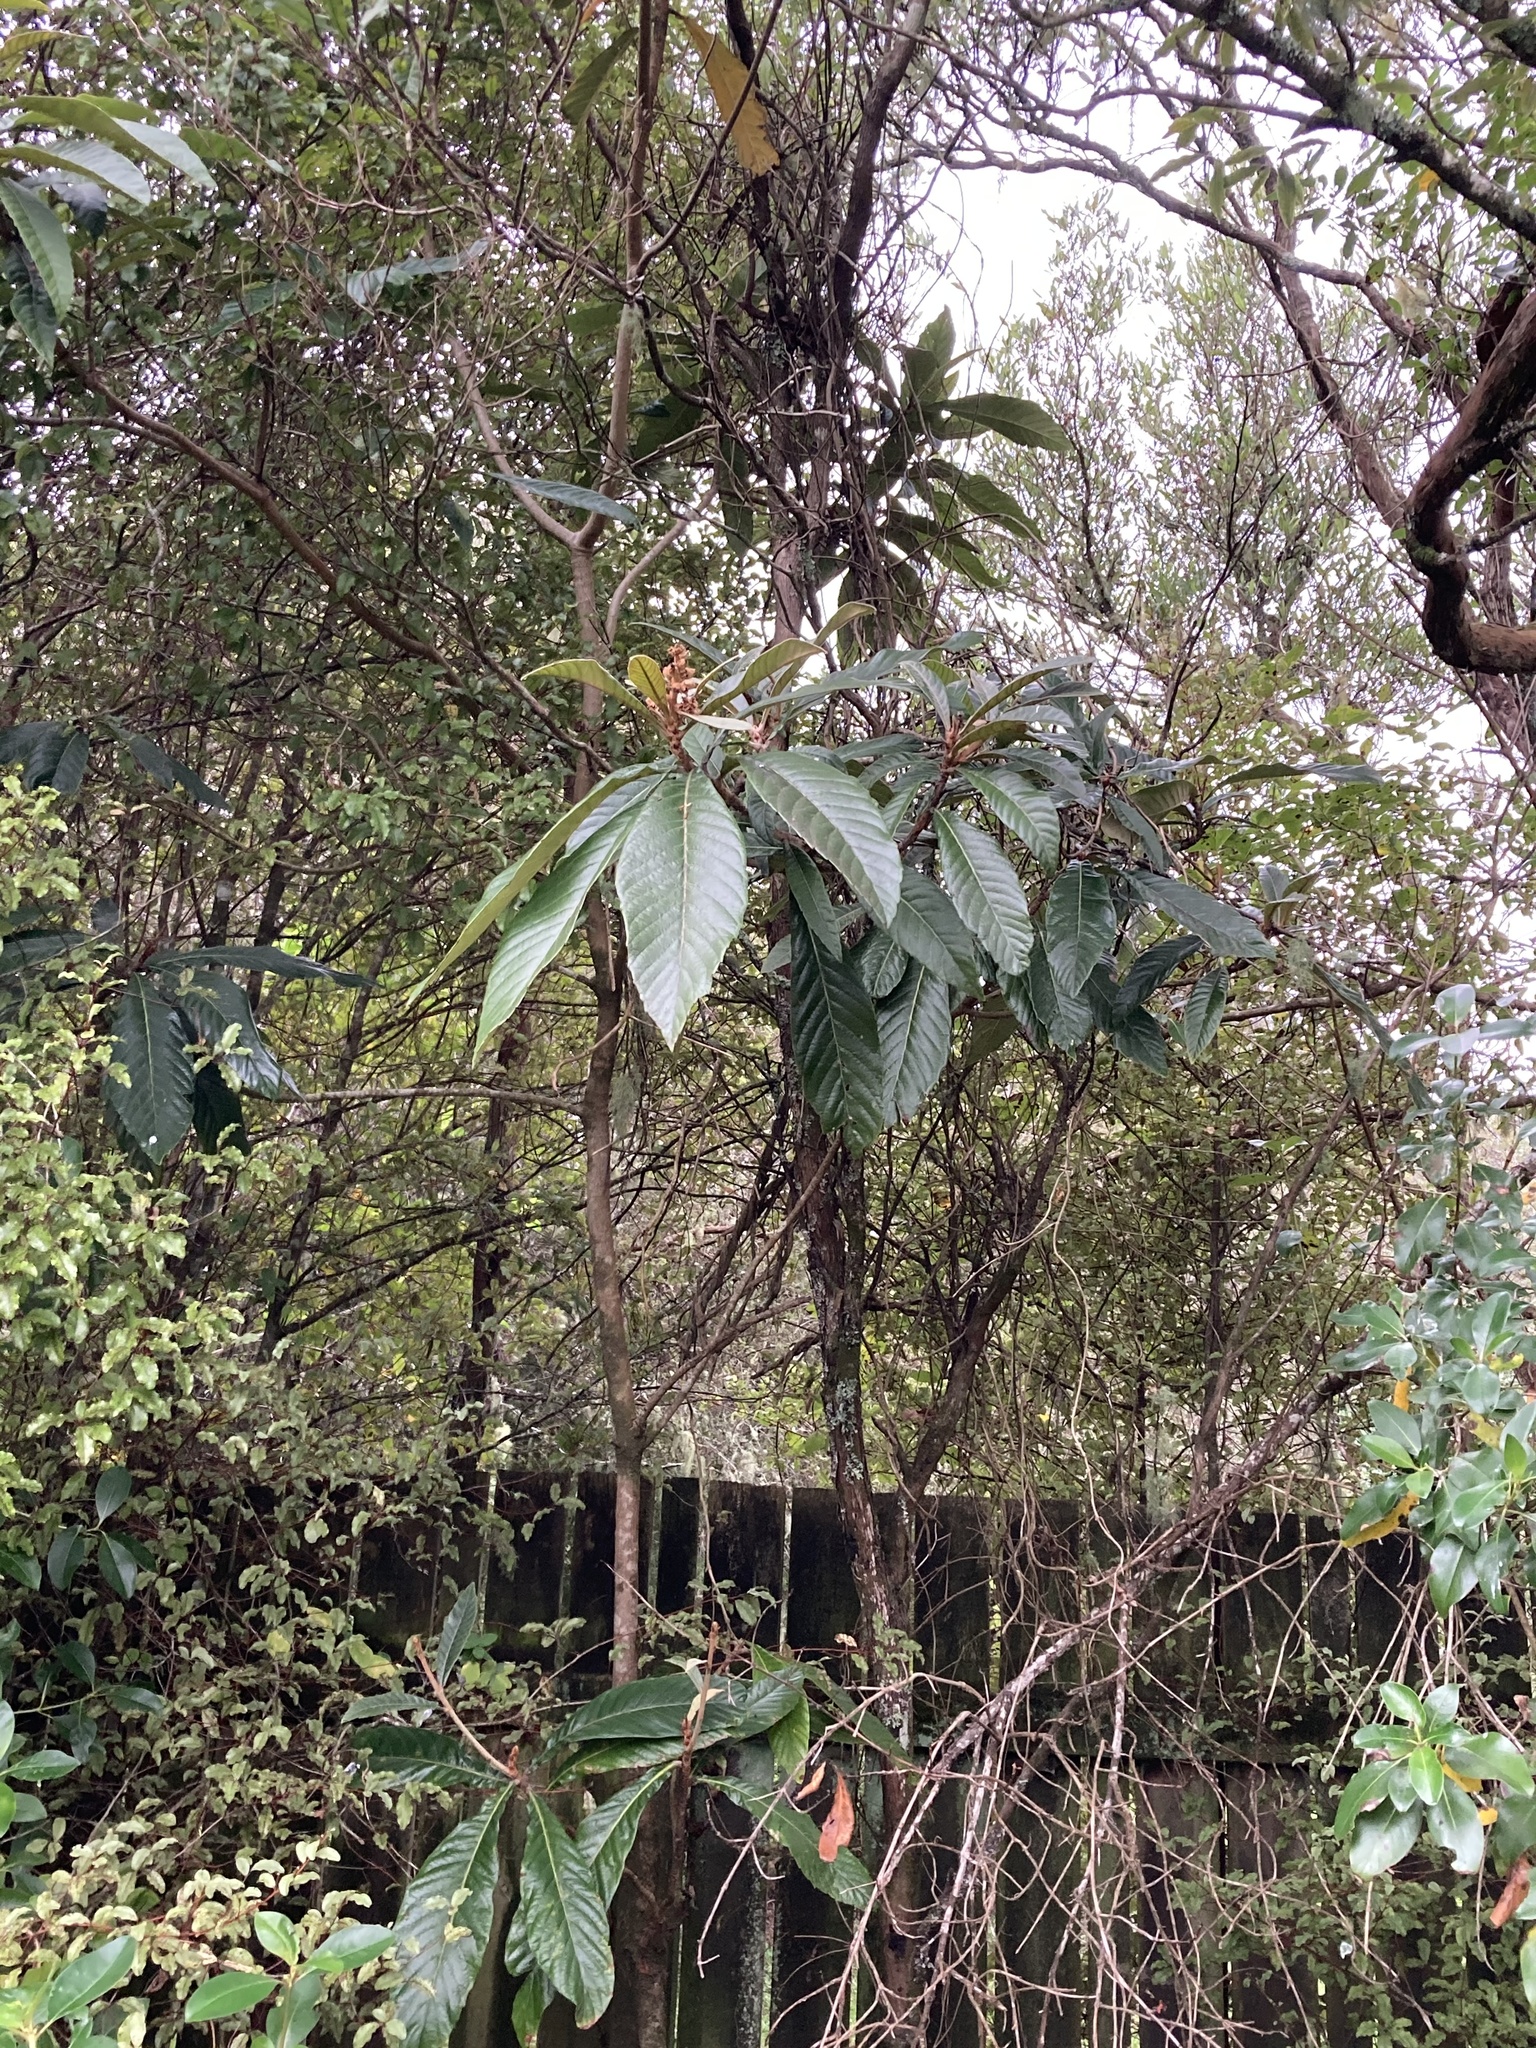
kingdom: Plantae
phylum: Tracheophyta
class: Magnoliopsida
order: Rosales
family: Rosaceae
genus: Rhaphiolepis
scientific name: Rhaphiolepis bibas
